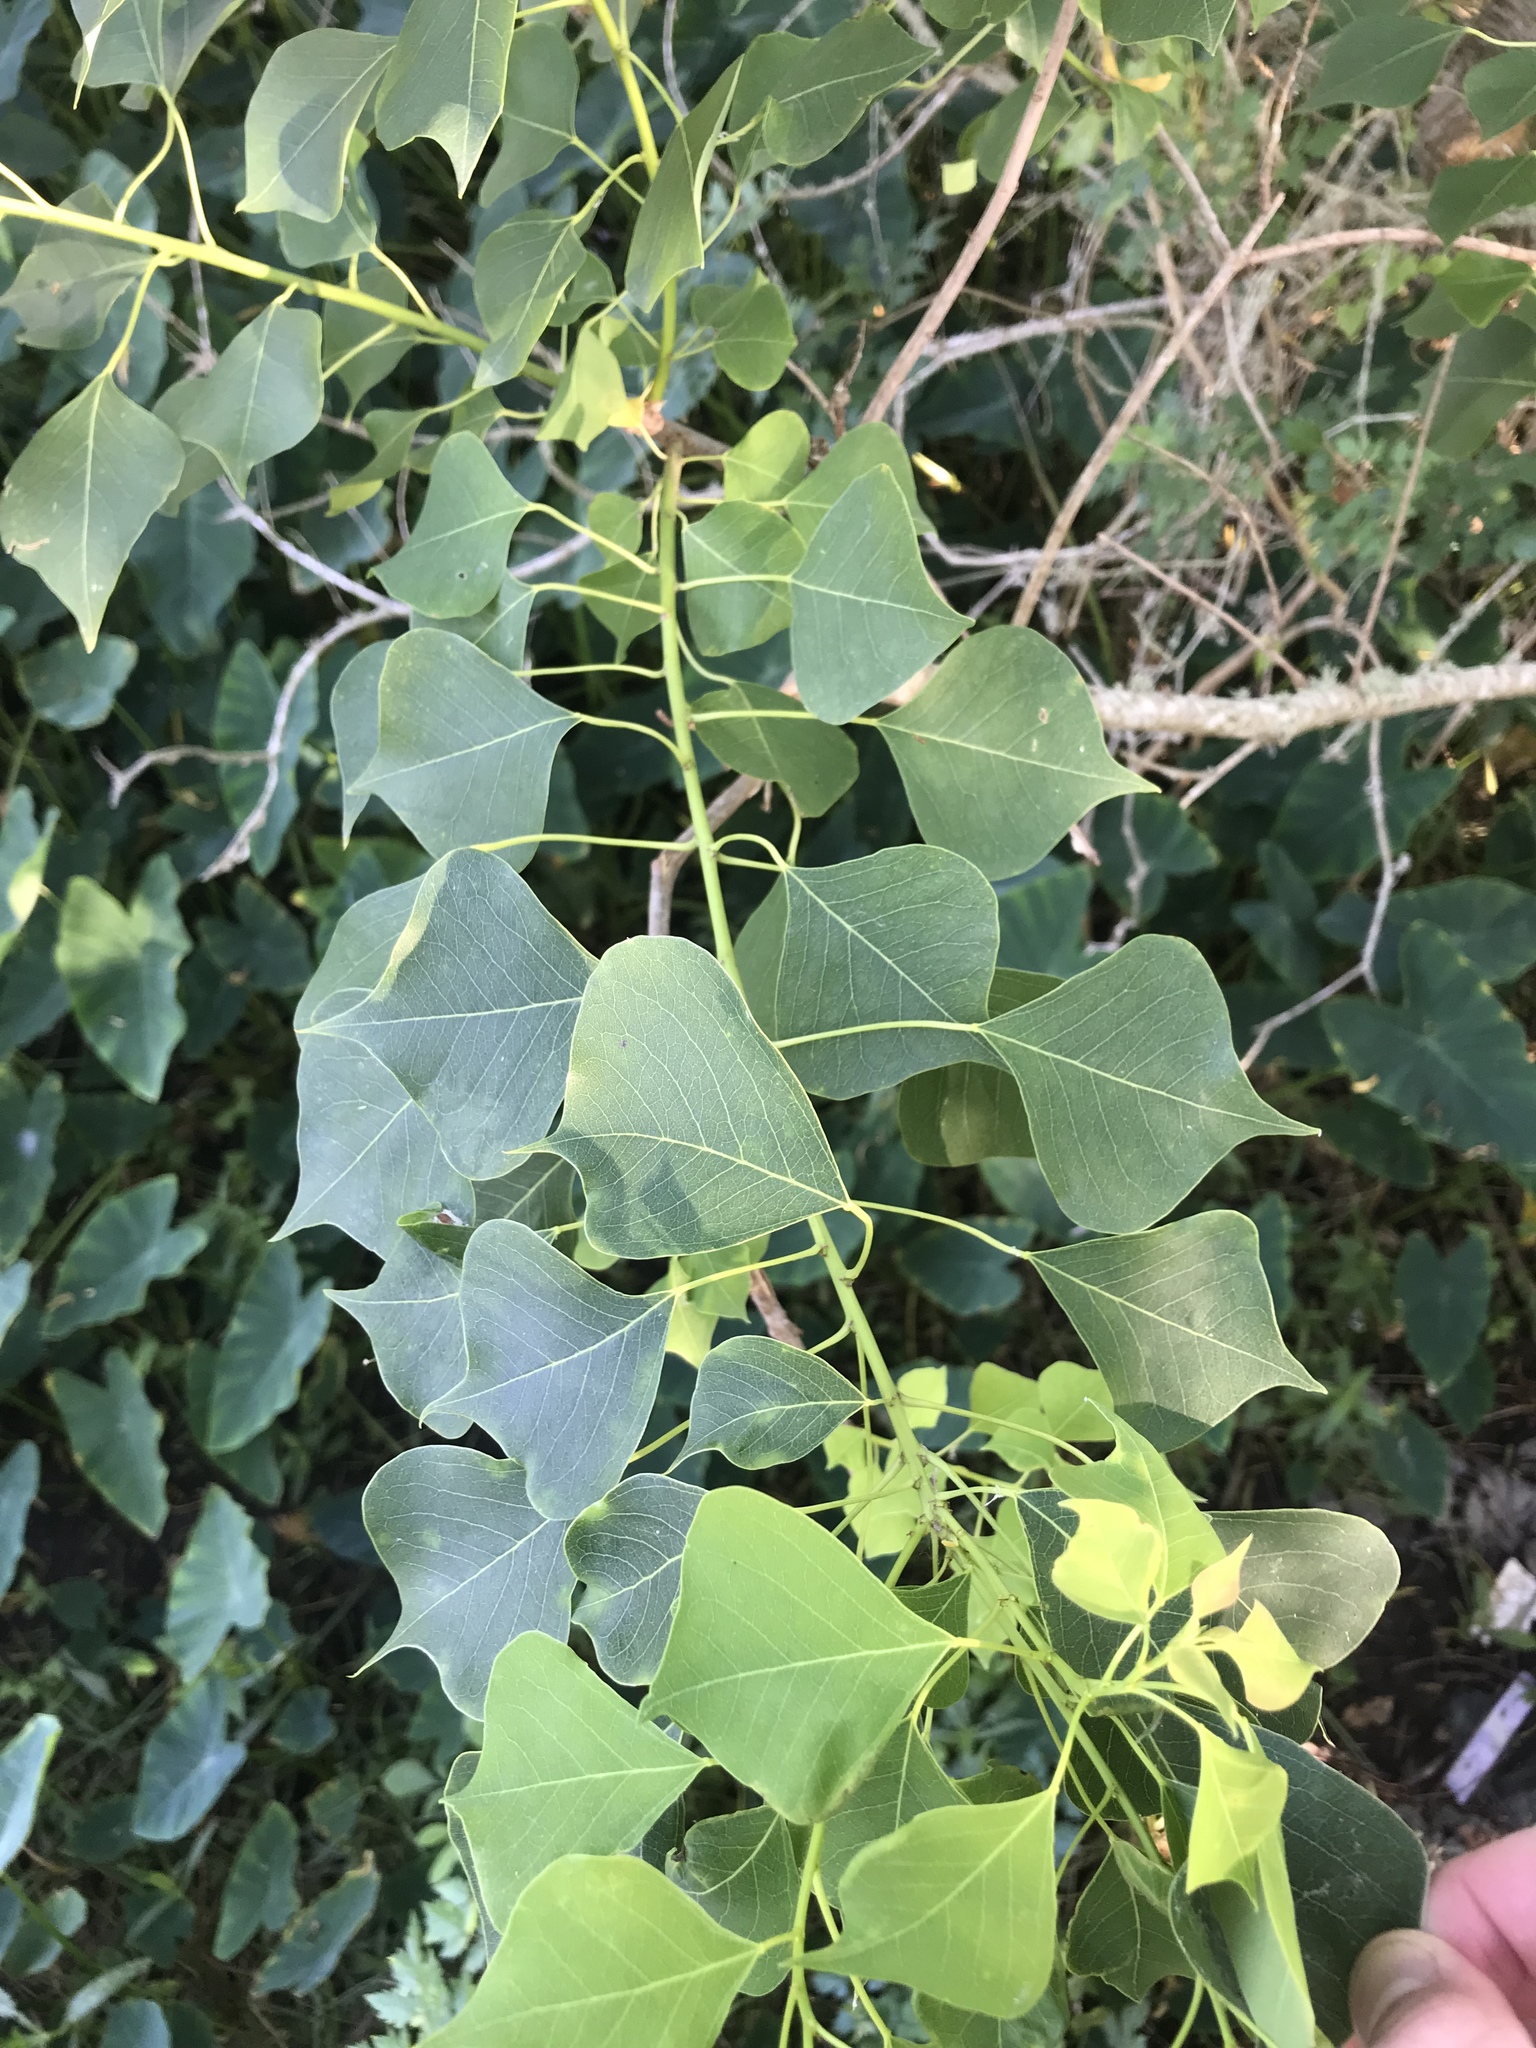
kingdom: Plantae
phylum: Tracheophyta
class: Magnoliopsida
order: Malpighiales
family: Euphorbiaceae
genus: Triadica
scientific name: Triadica sebifera
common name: Chinese tallow
